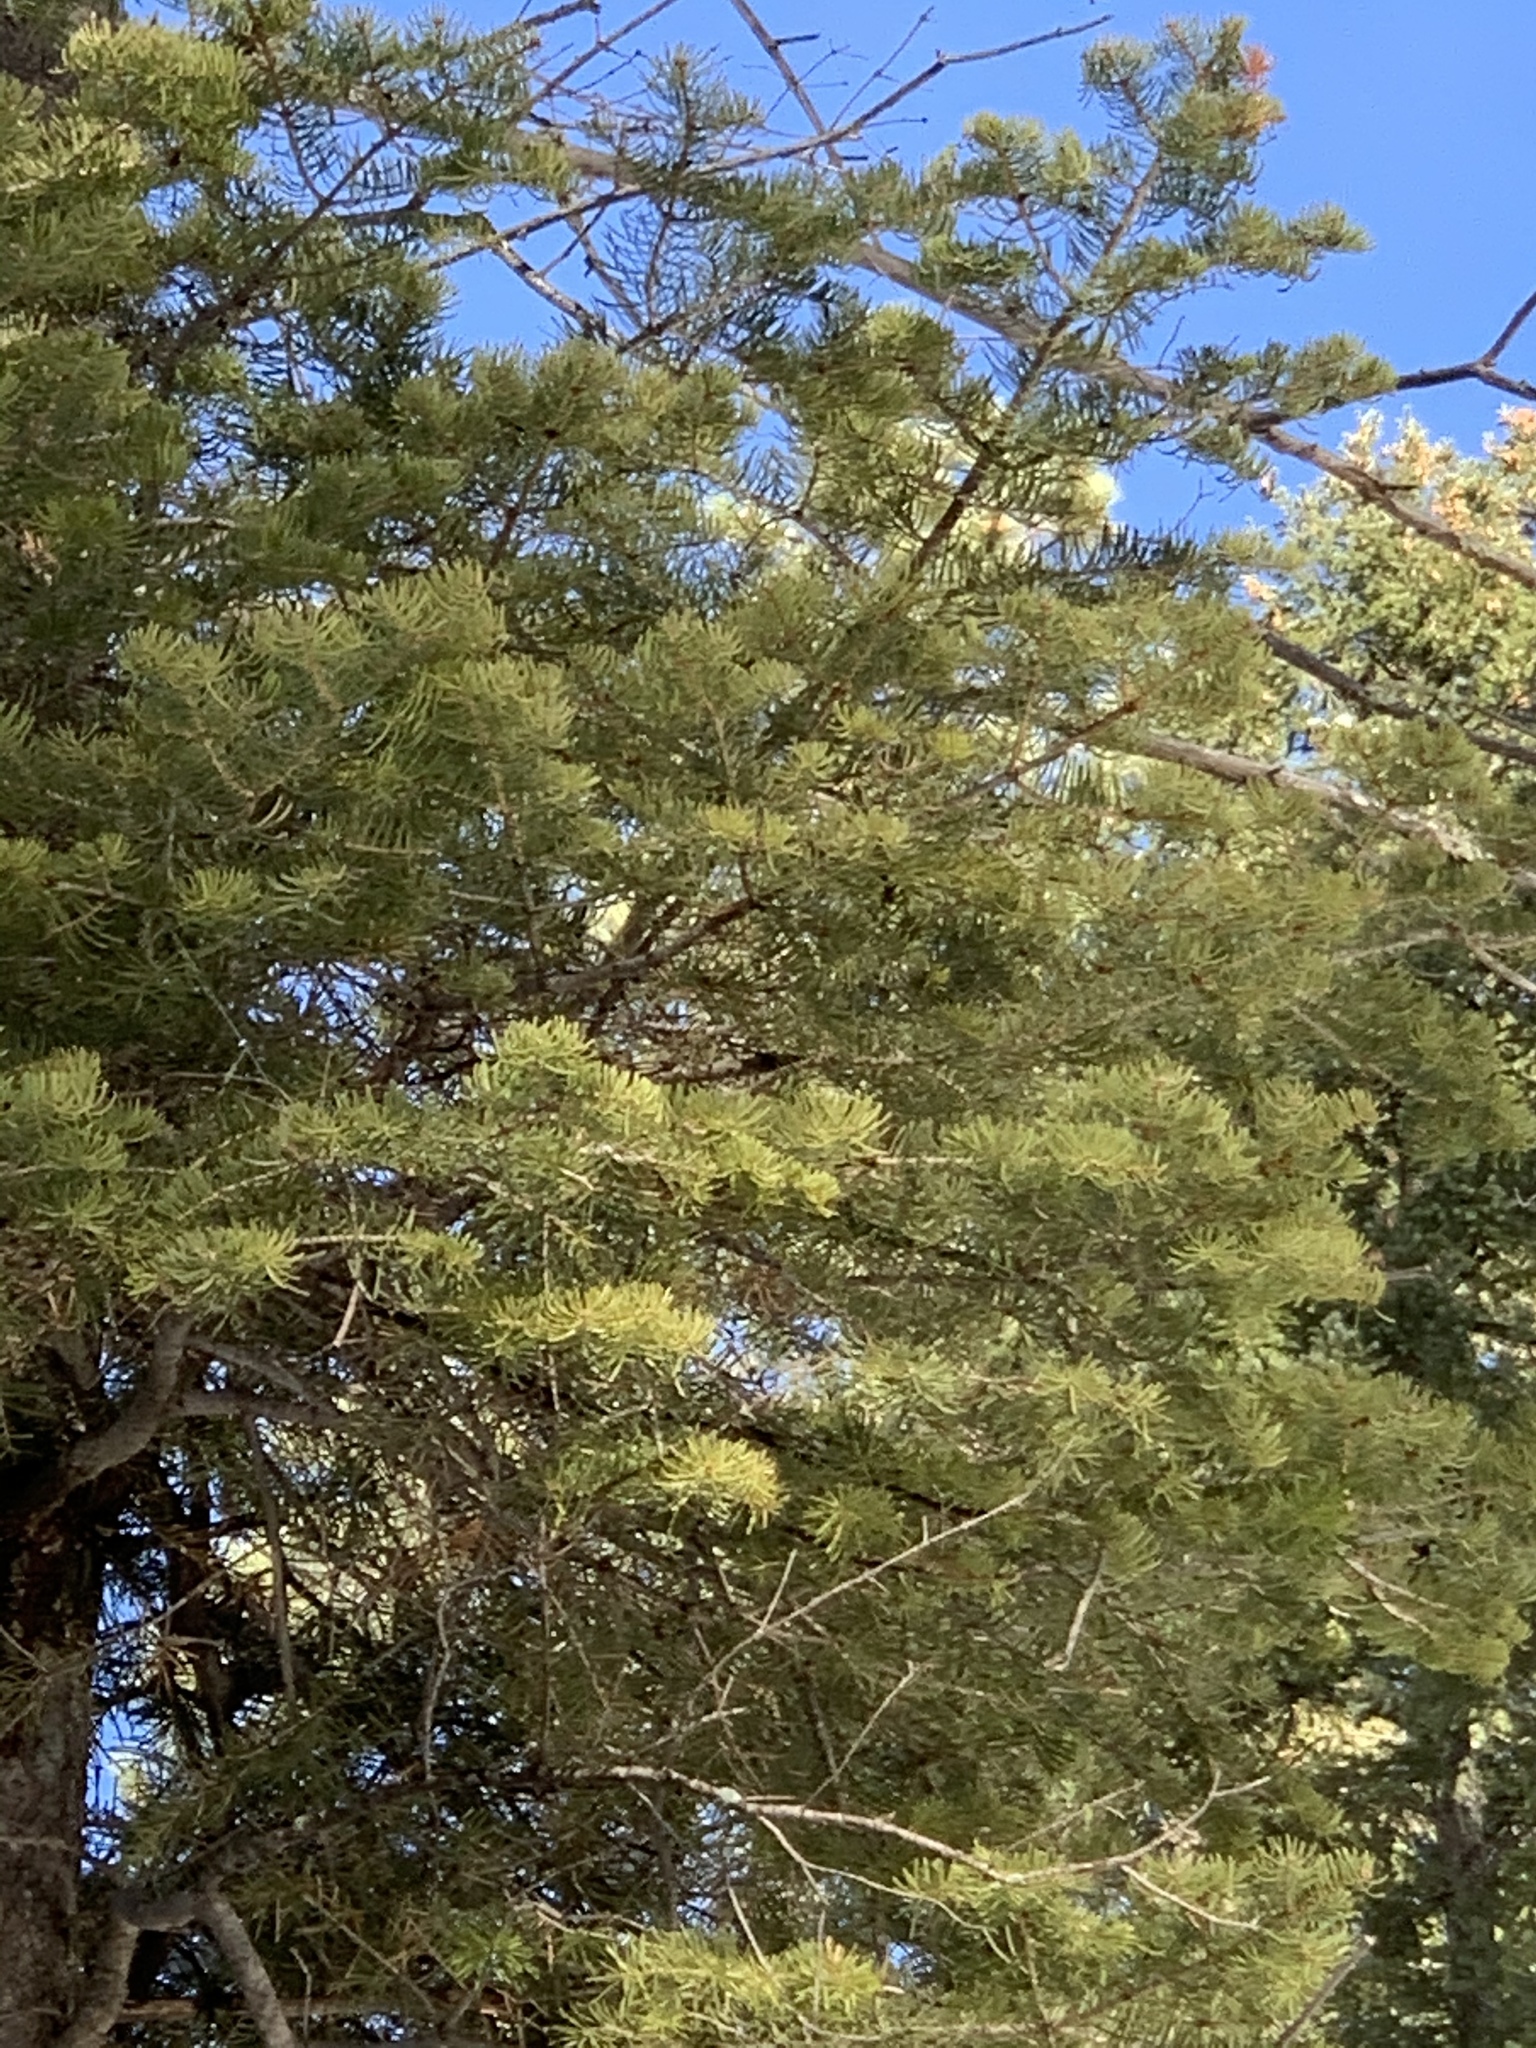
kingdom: Plantae
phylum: Tracheophyta
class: Pinopsida
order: Pinales
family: Pinaceae
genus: Abies
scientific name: Abies concolor
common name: Colorado fir
